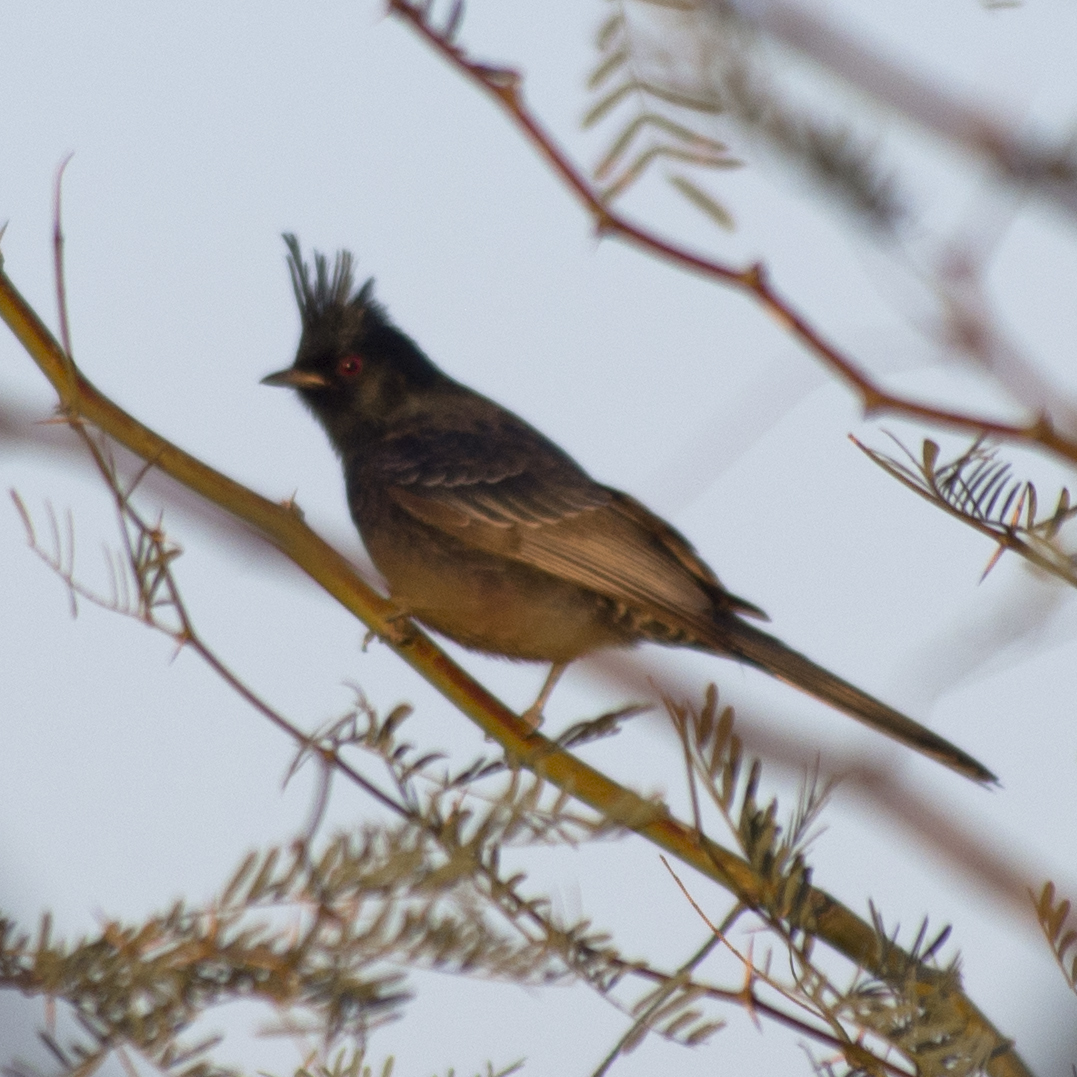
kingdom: Animalia
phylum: Chordata
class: Aves
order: Passeriformes
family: Ptilogonatidae
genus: Phainopepla
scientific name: Phainopepla nitens
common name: Phainopepla
